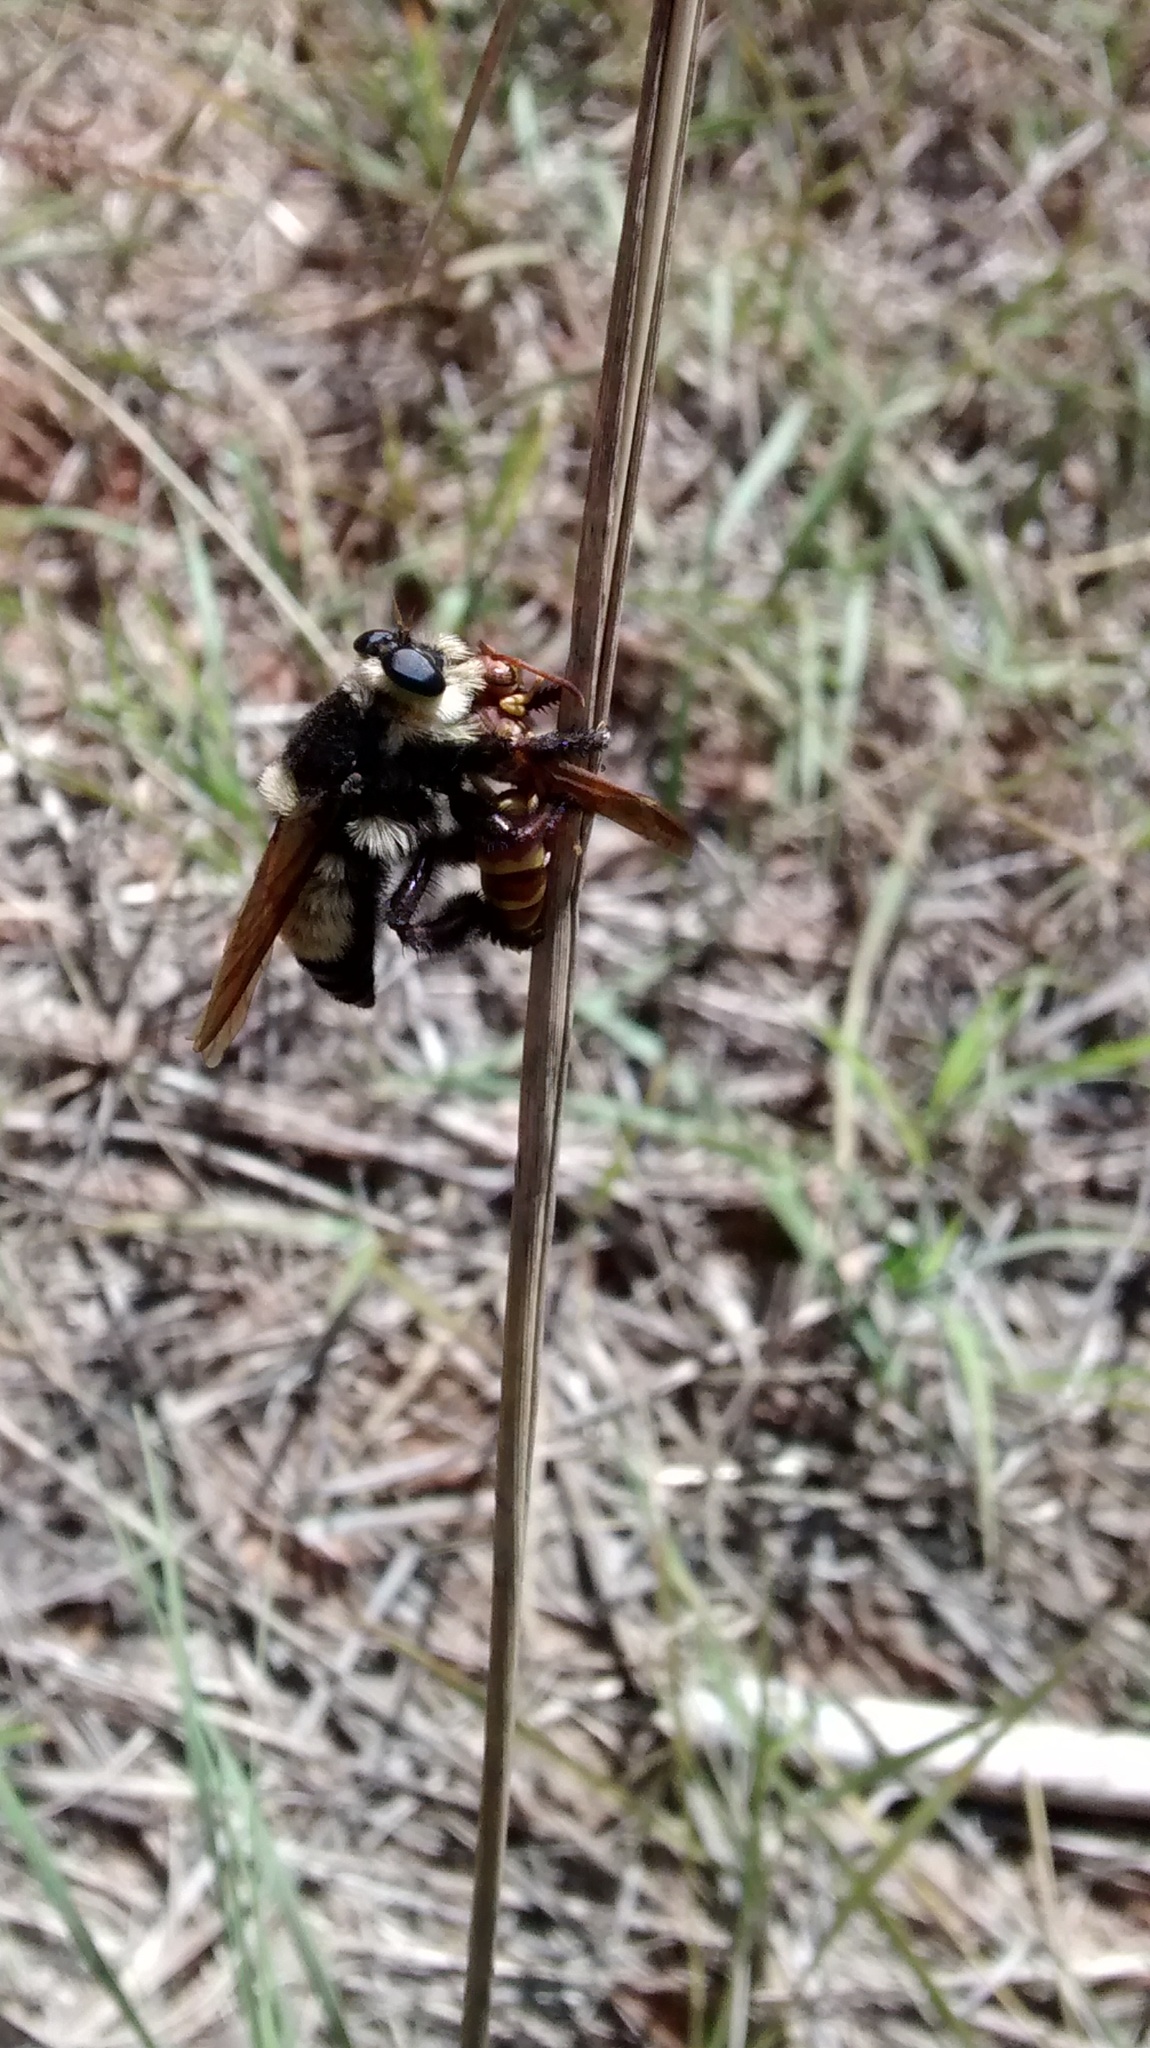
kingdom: Animalia
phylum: Arthropoda
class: Insecta
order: Diptera
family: Asilidae
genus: Mallophora
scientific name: Mallophora orcina
